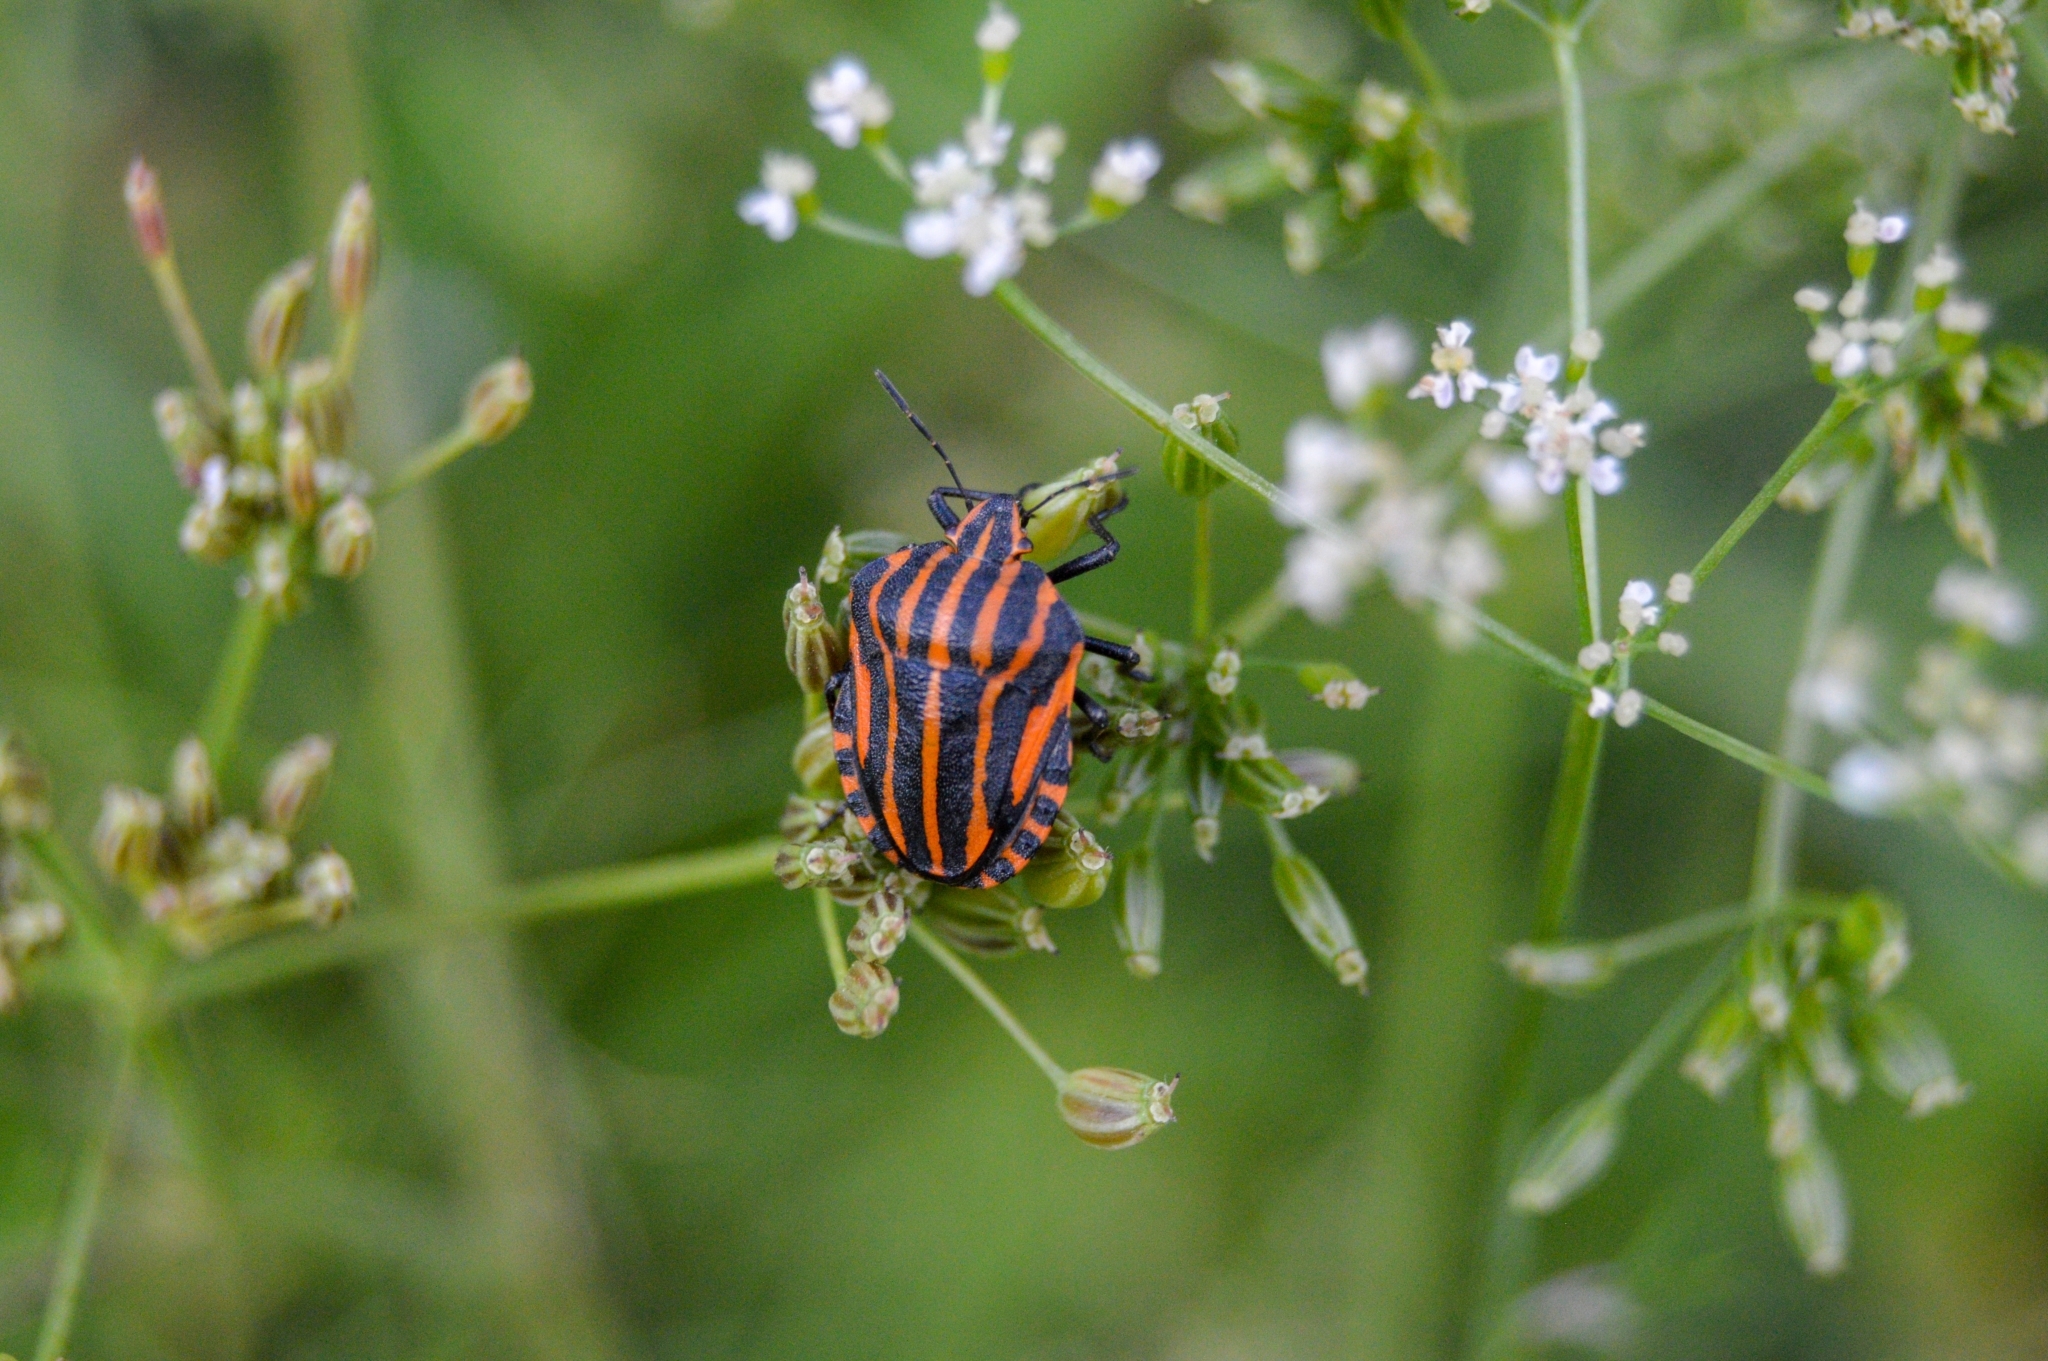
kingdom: Animalia
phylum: Arthropoda
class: Insecta
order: Hemiptera
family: Pentatomidae
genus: Graphosoma
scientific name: Graphosoma italicum
